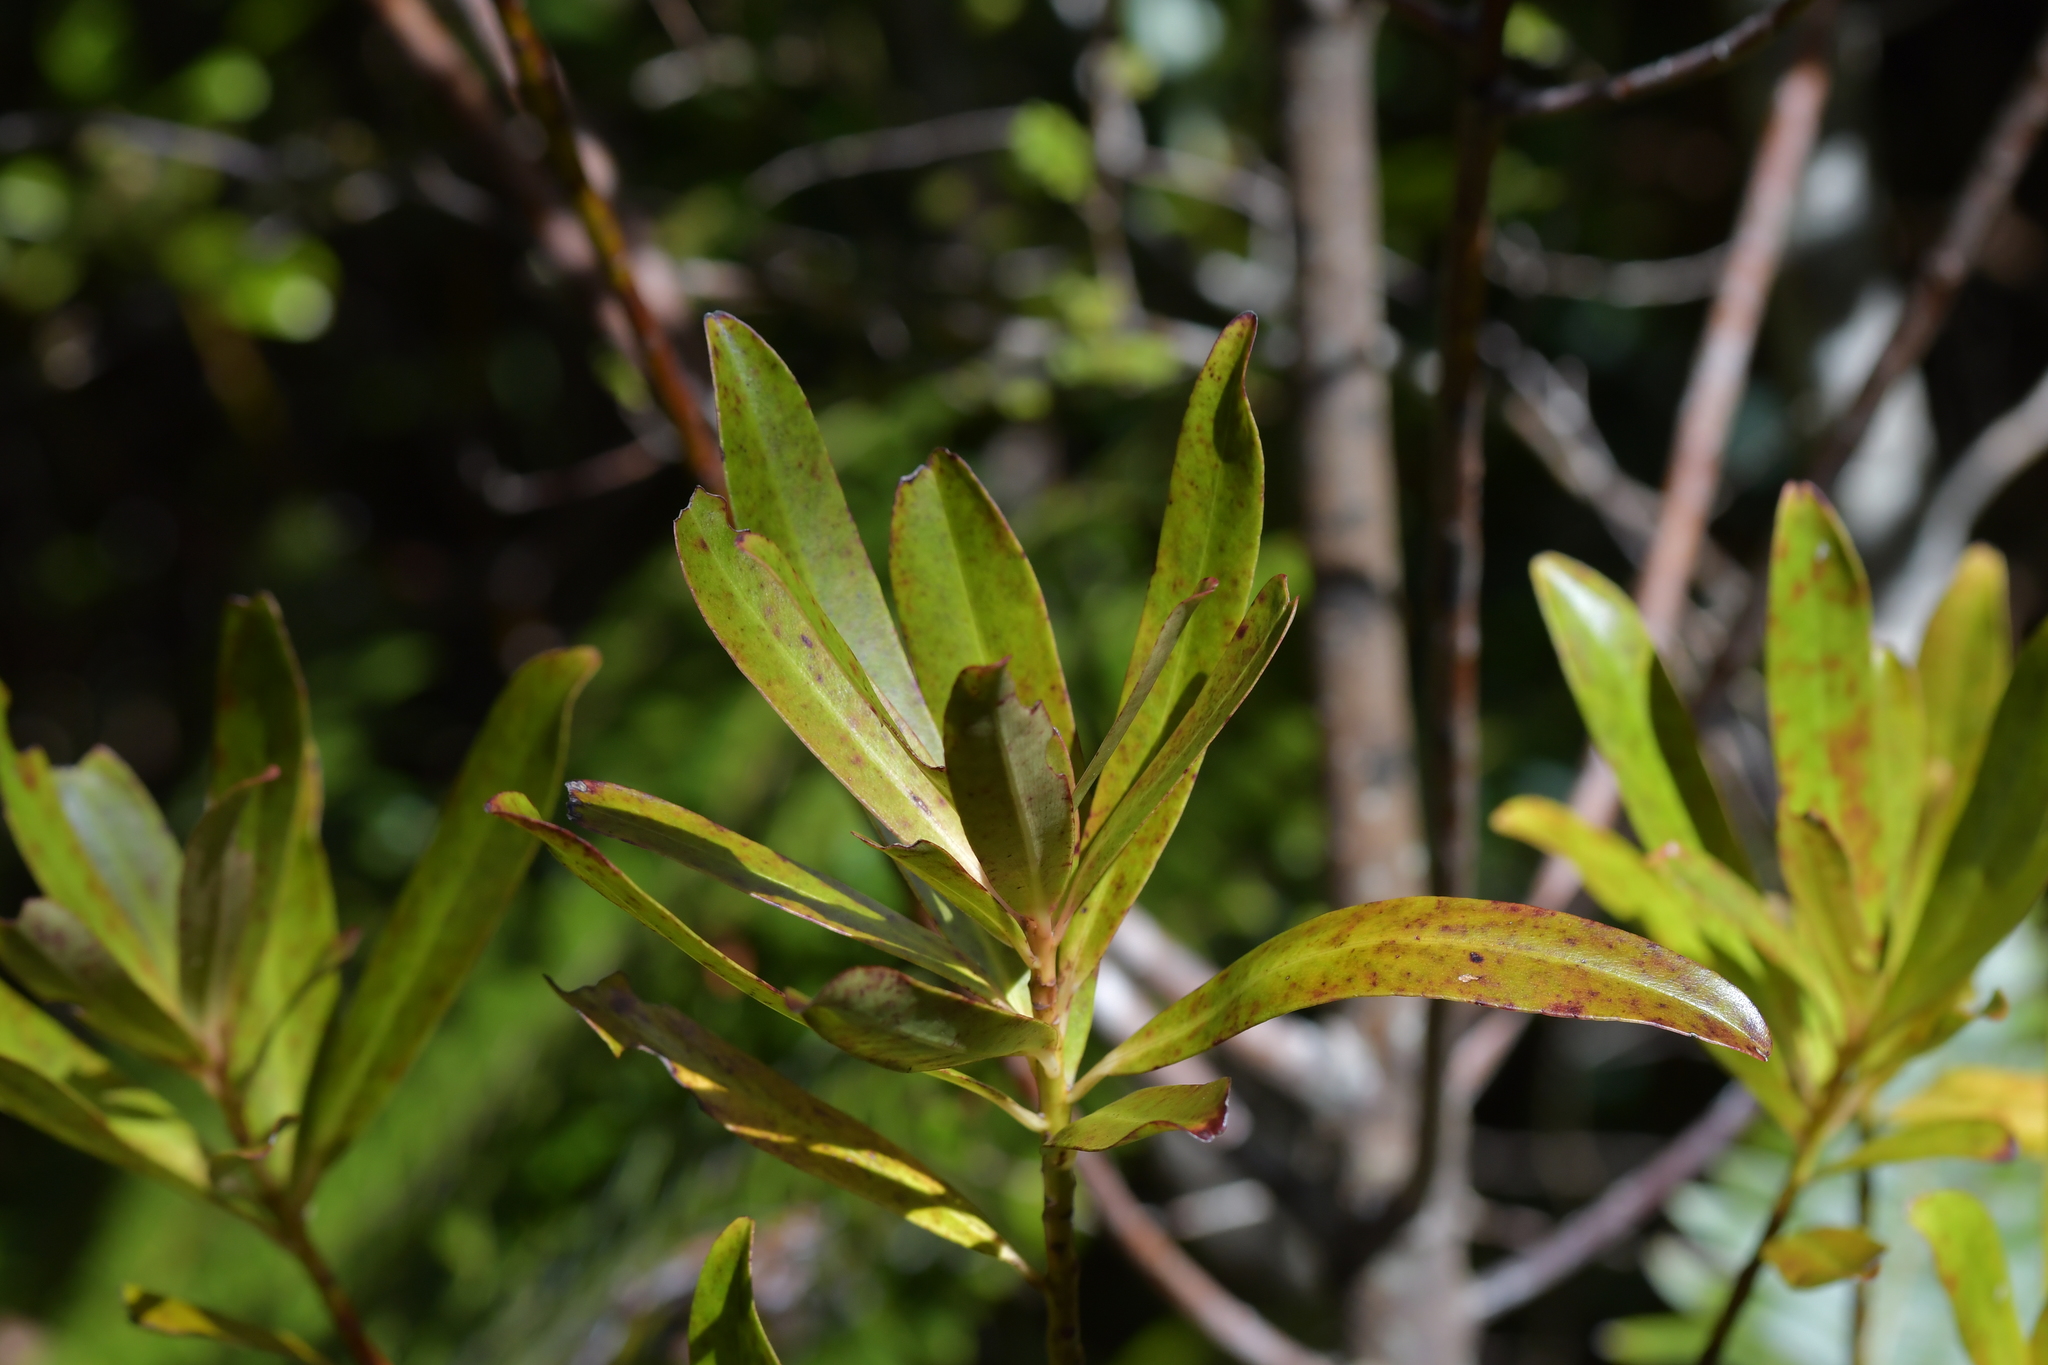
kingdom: Plantae
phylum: Tracheophyta
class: Magnoliopsida
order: Ericales
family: Primulaceae
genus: Myrsine
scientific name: Myrsine salicina
